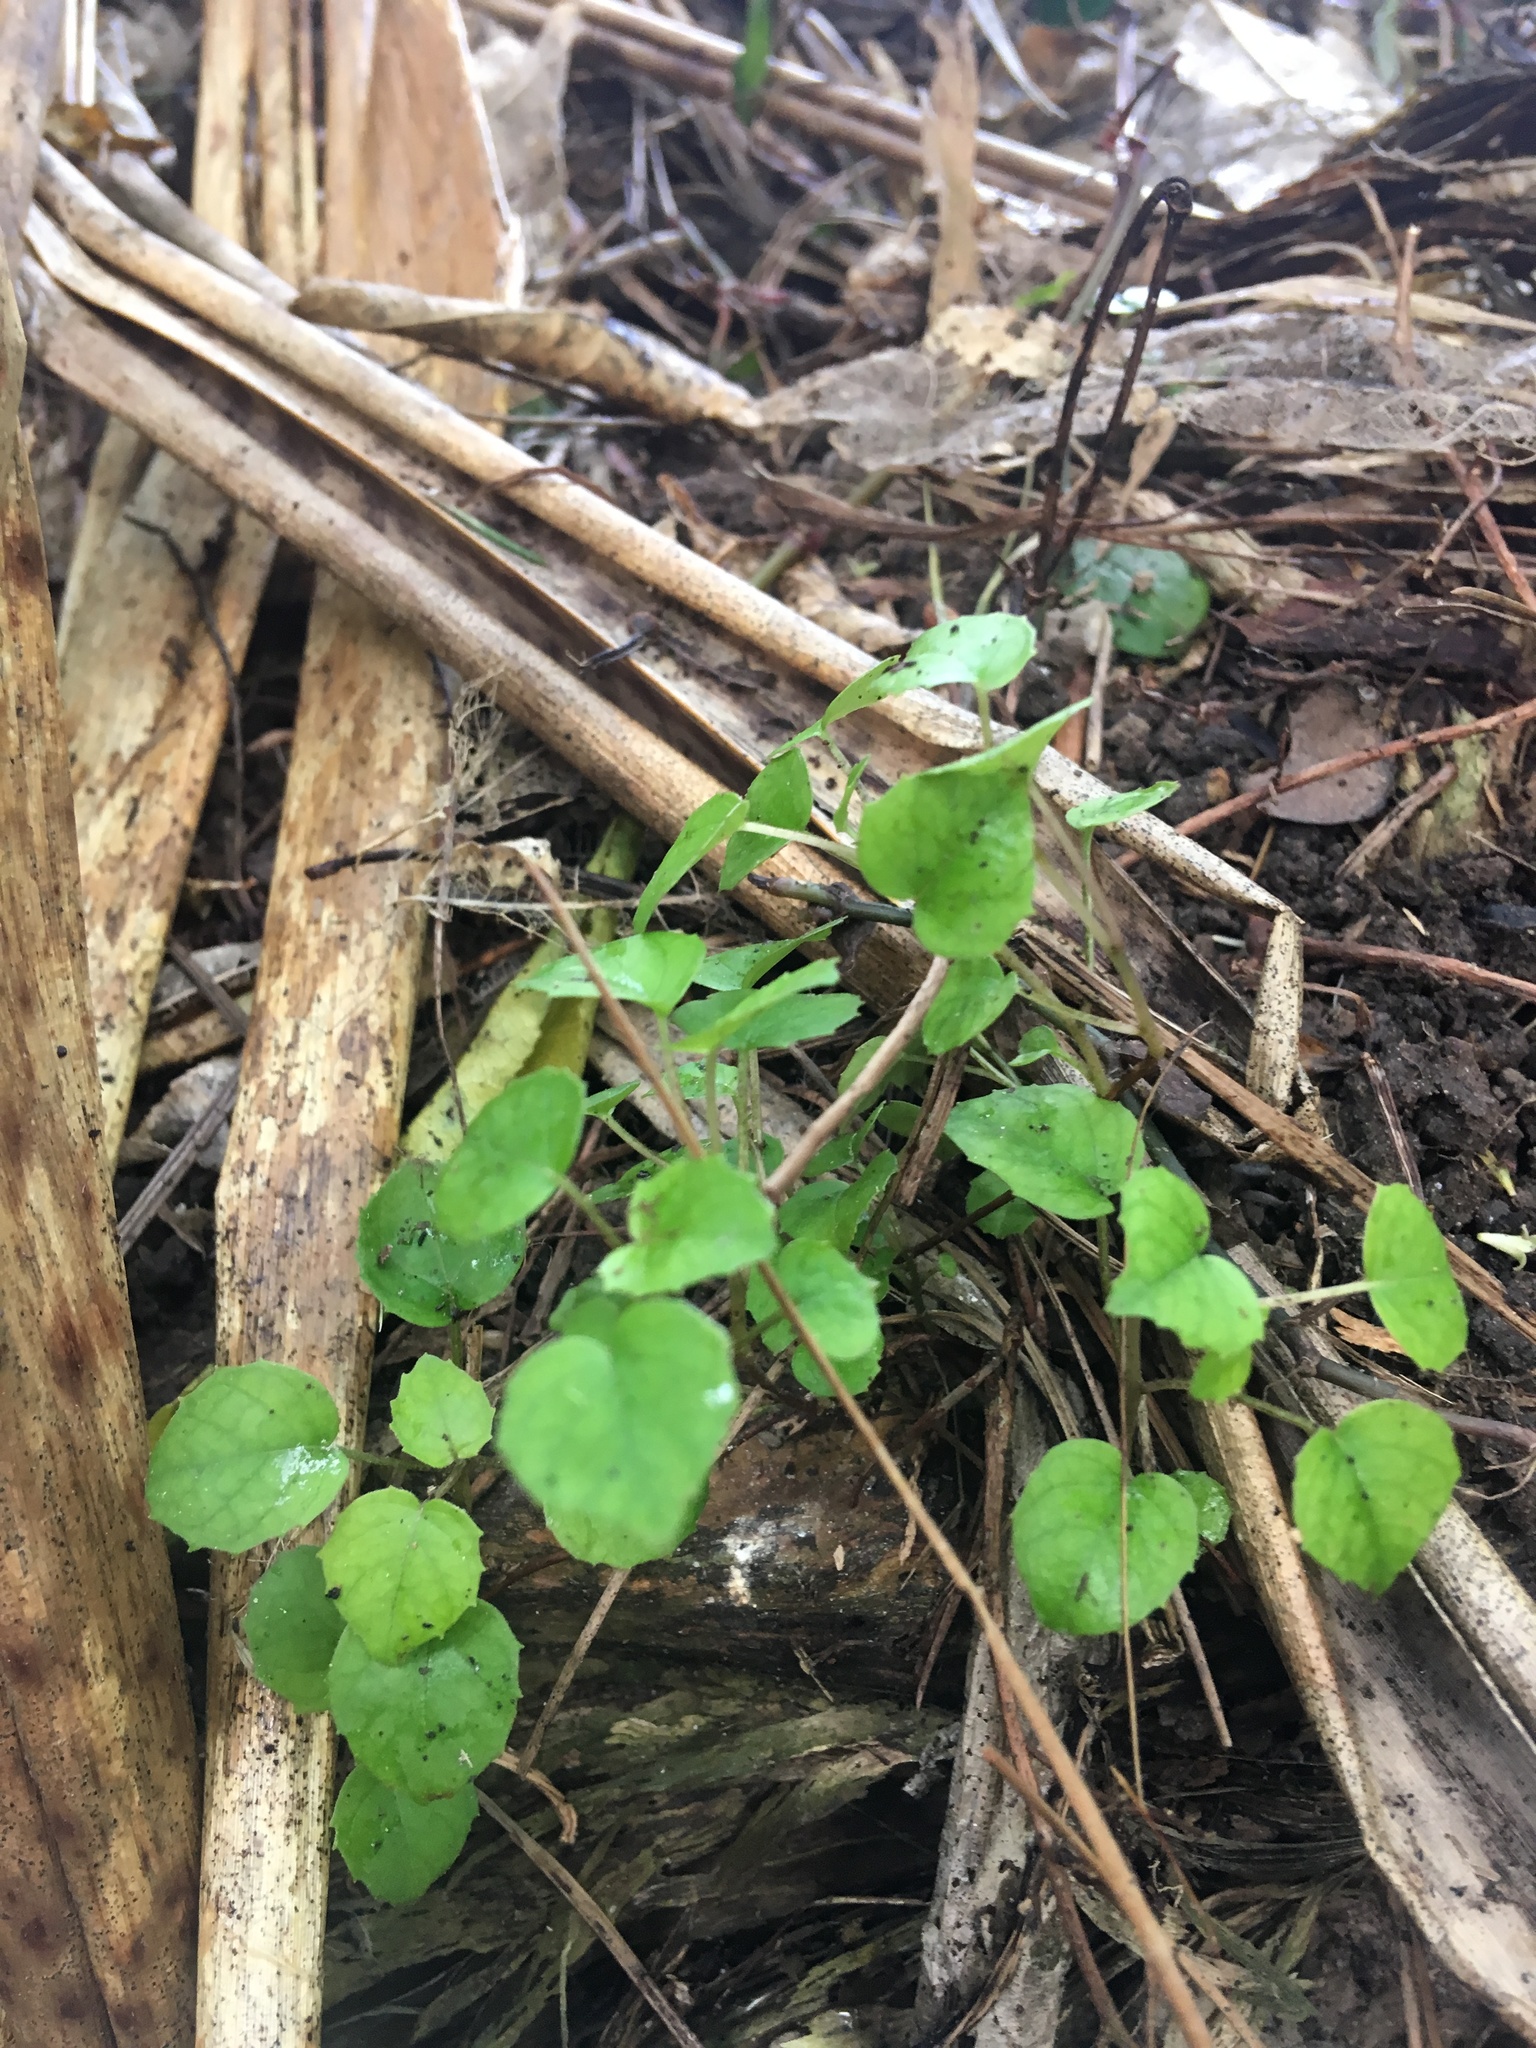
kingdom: Plantae
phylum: Tracheophyta
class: Magnoliopsida
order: Myrtales
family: Onagraceae
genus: Fuchsia
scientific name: Fuchsia procumbens
